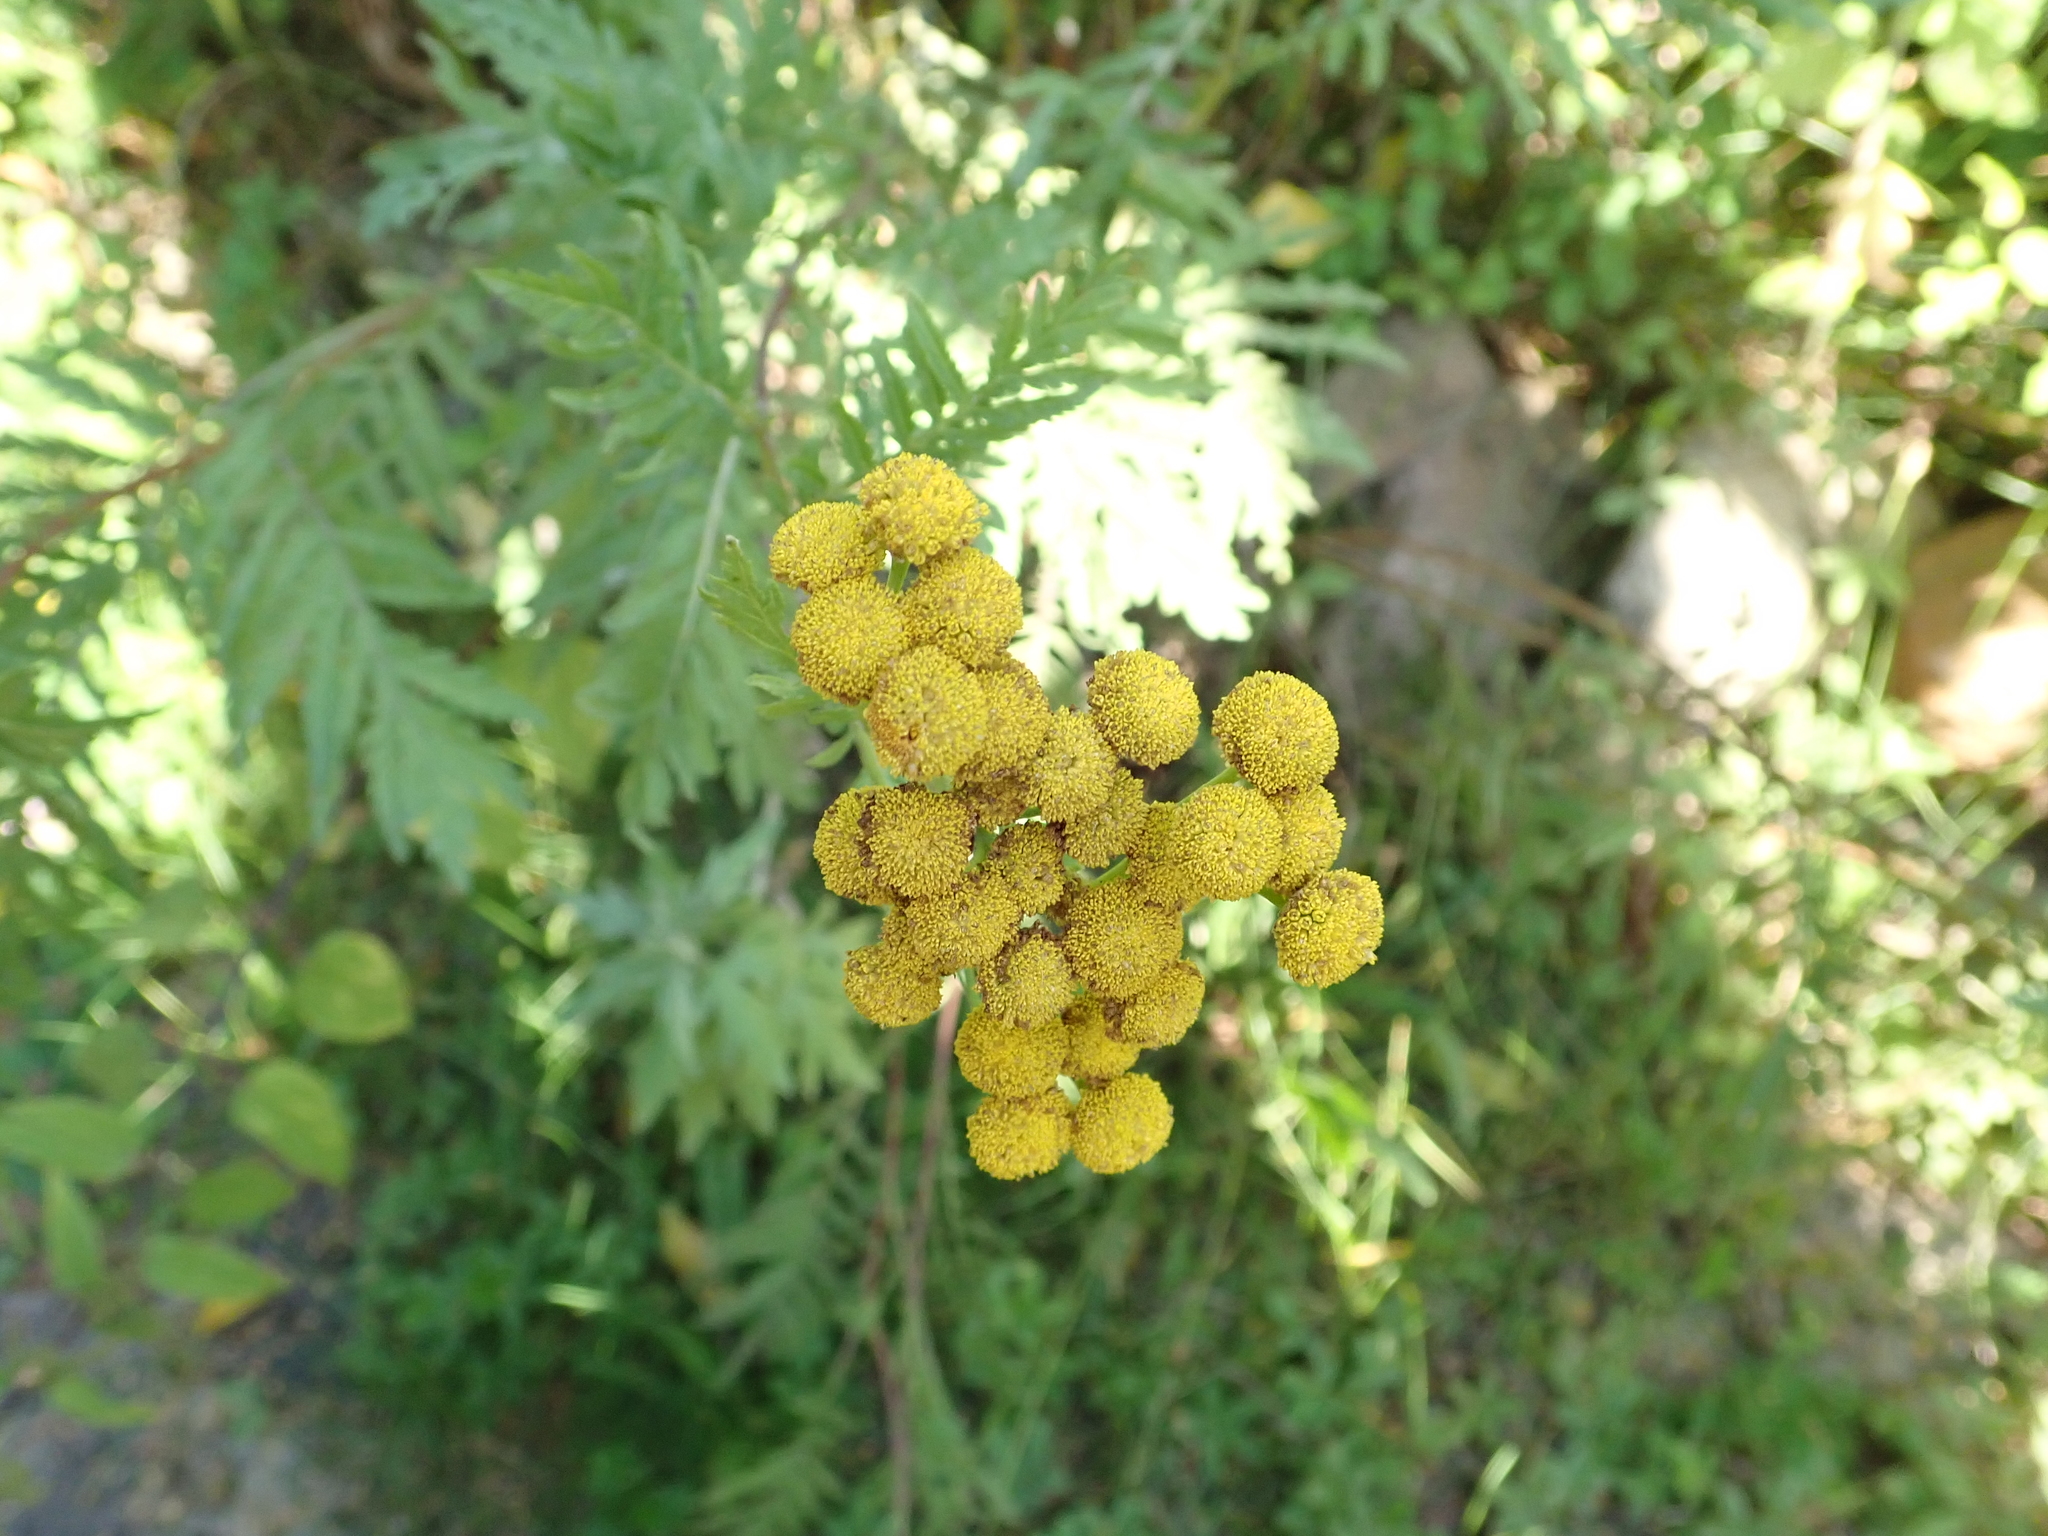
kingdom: Plantae
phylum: Tracheophyta
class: Magnoliopsida
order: Asterales
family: Asteraceae
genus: Tanacetum
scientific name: Tanacetum vulgare
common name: Common tansy
